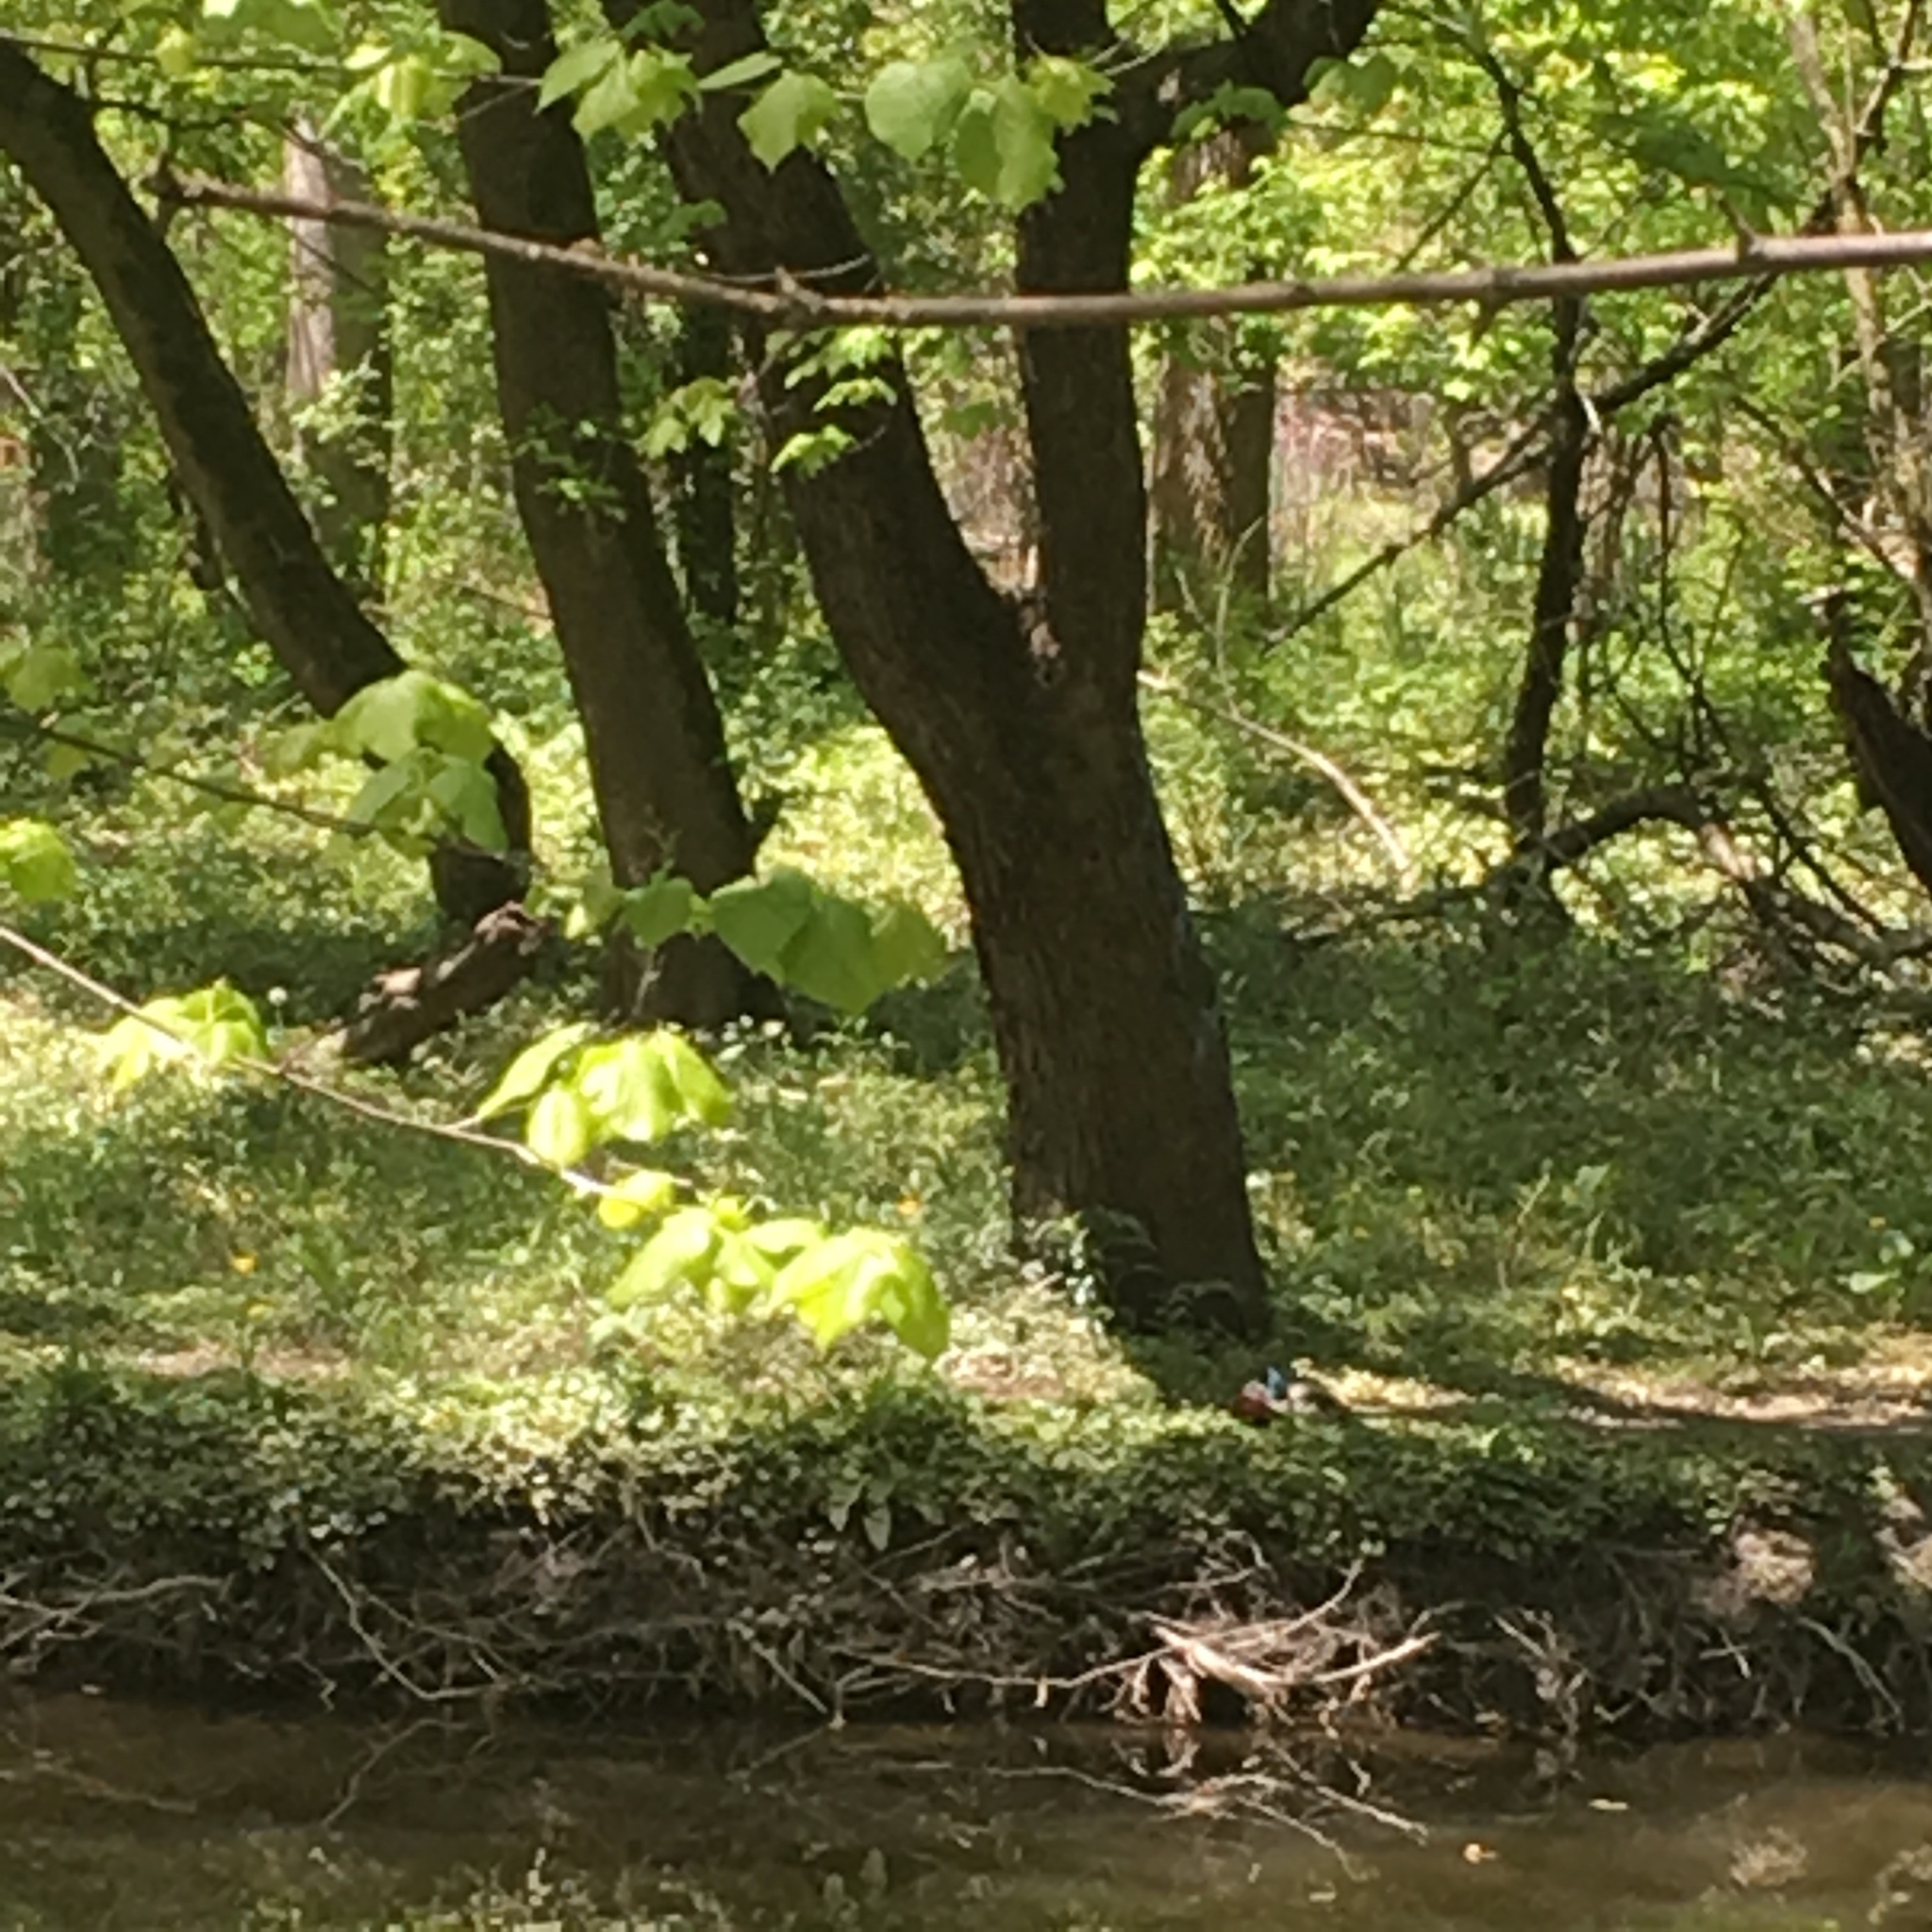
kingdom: Animalia
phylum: Chordata
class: Aves
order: Anseriformes
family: Anatidae
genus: Anas
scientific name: Anas platyrhynchos
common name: Mallard
